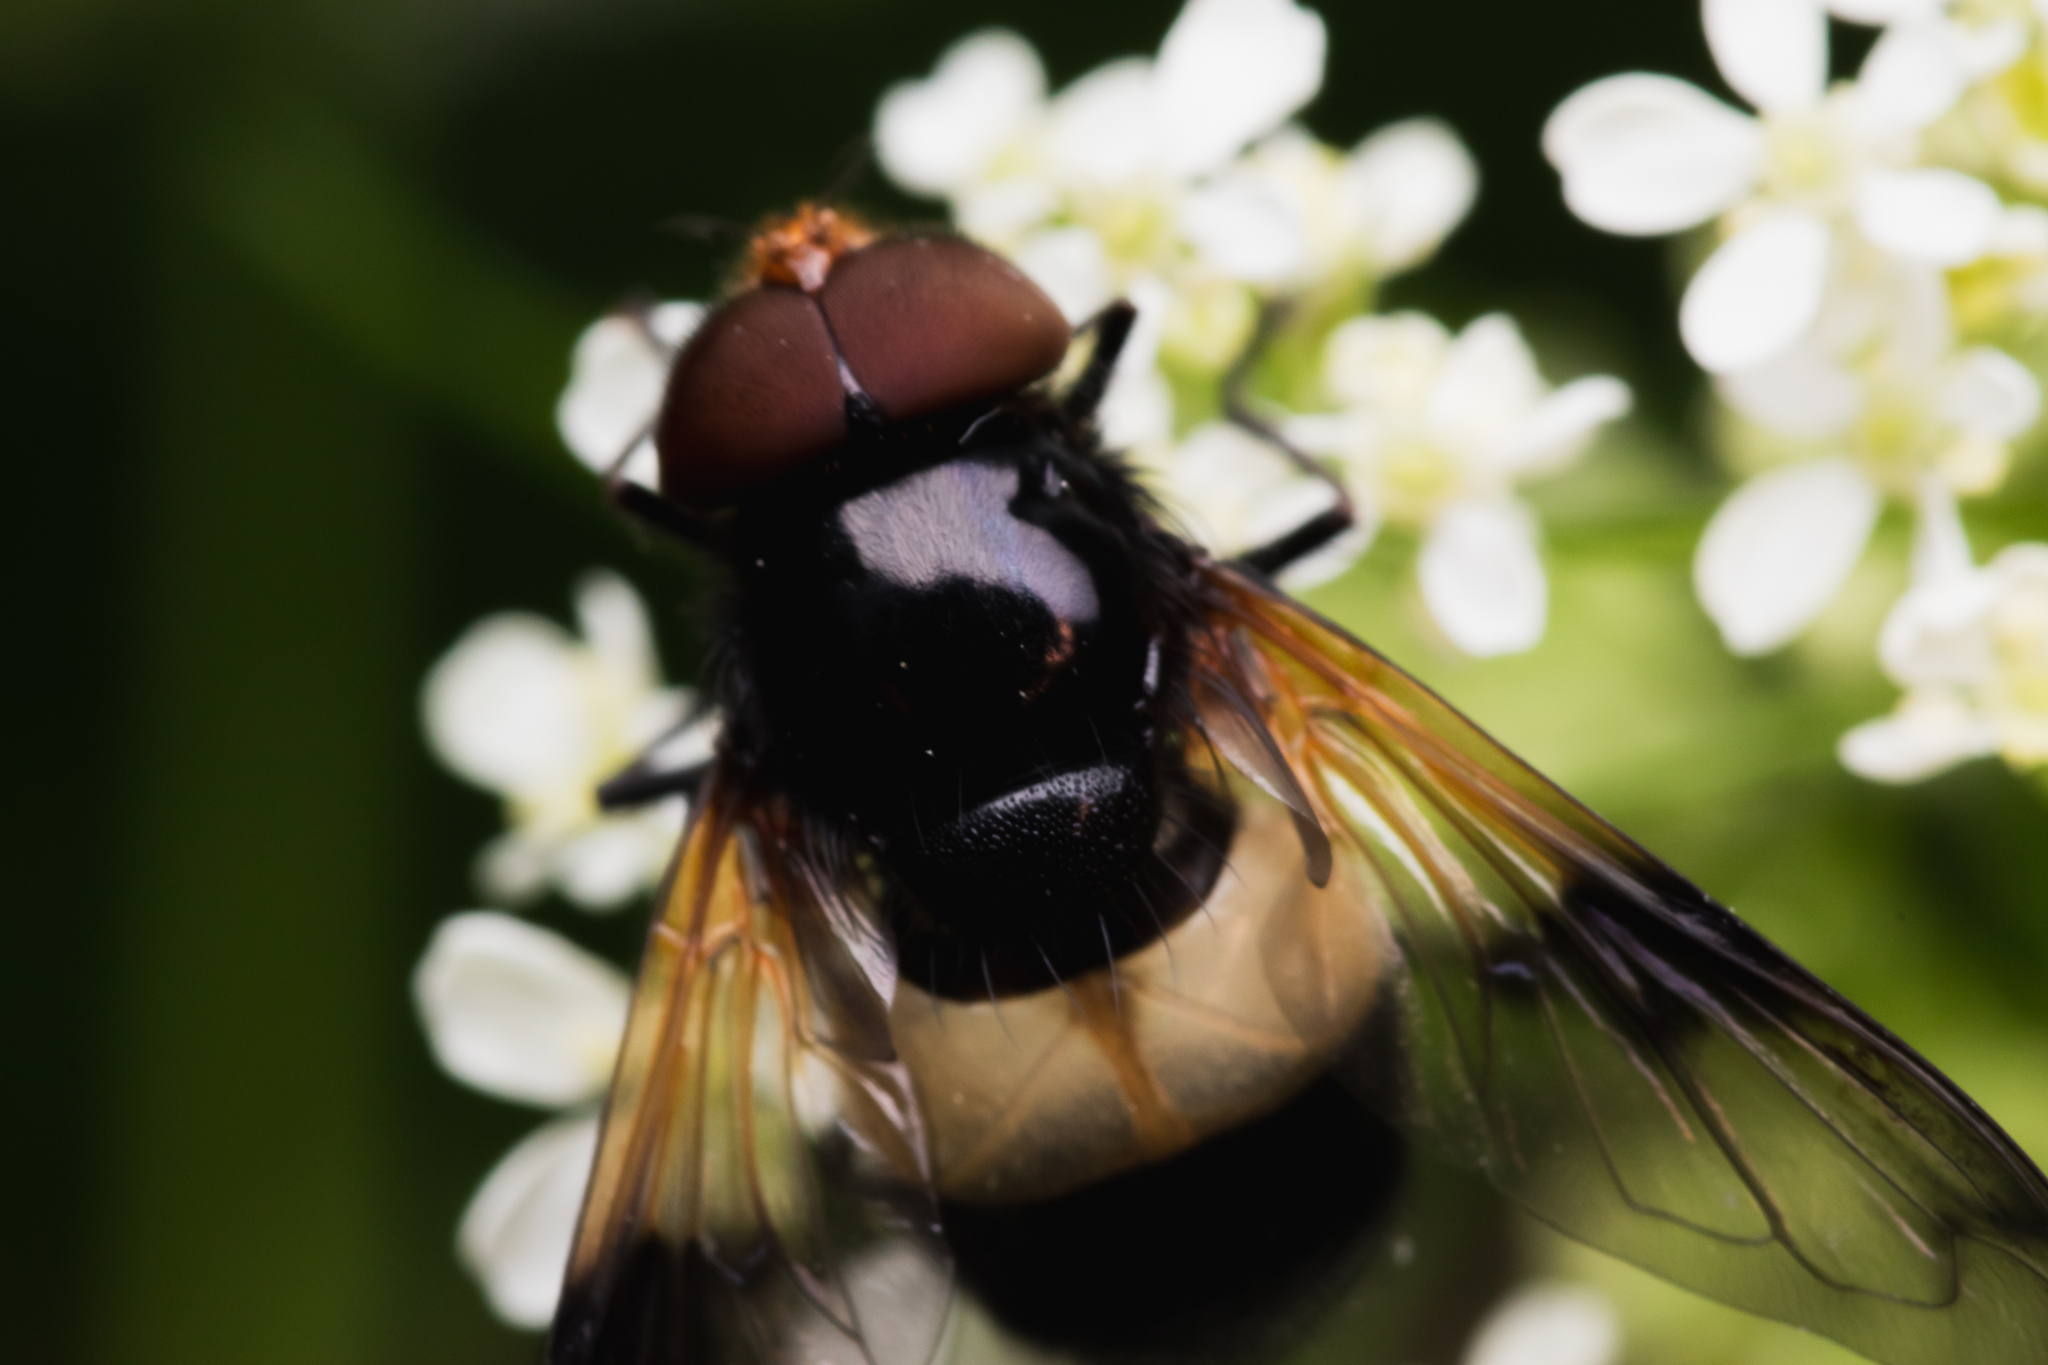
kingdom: Animalia
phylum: Arthropoda
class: Insecta
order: Diptera
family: Syrphidae
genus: Volucella
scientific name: Volucella pellucens
